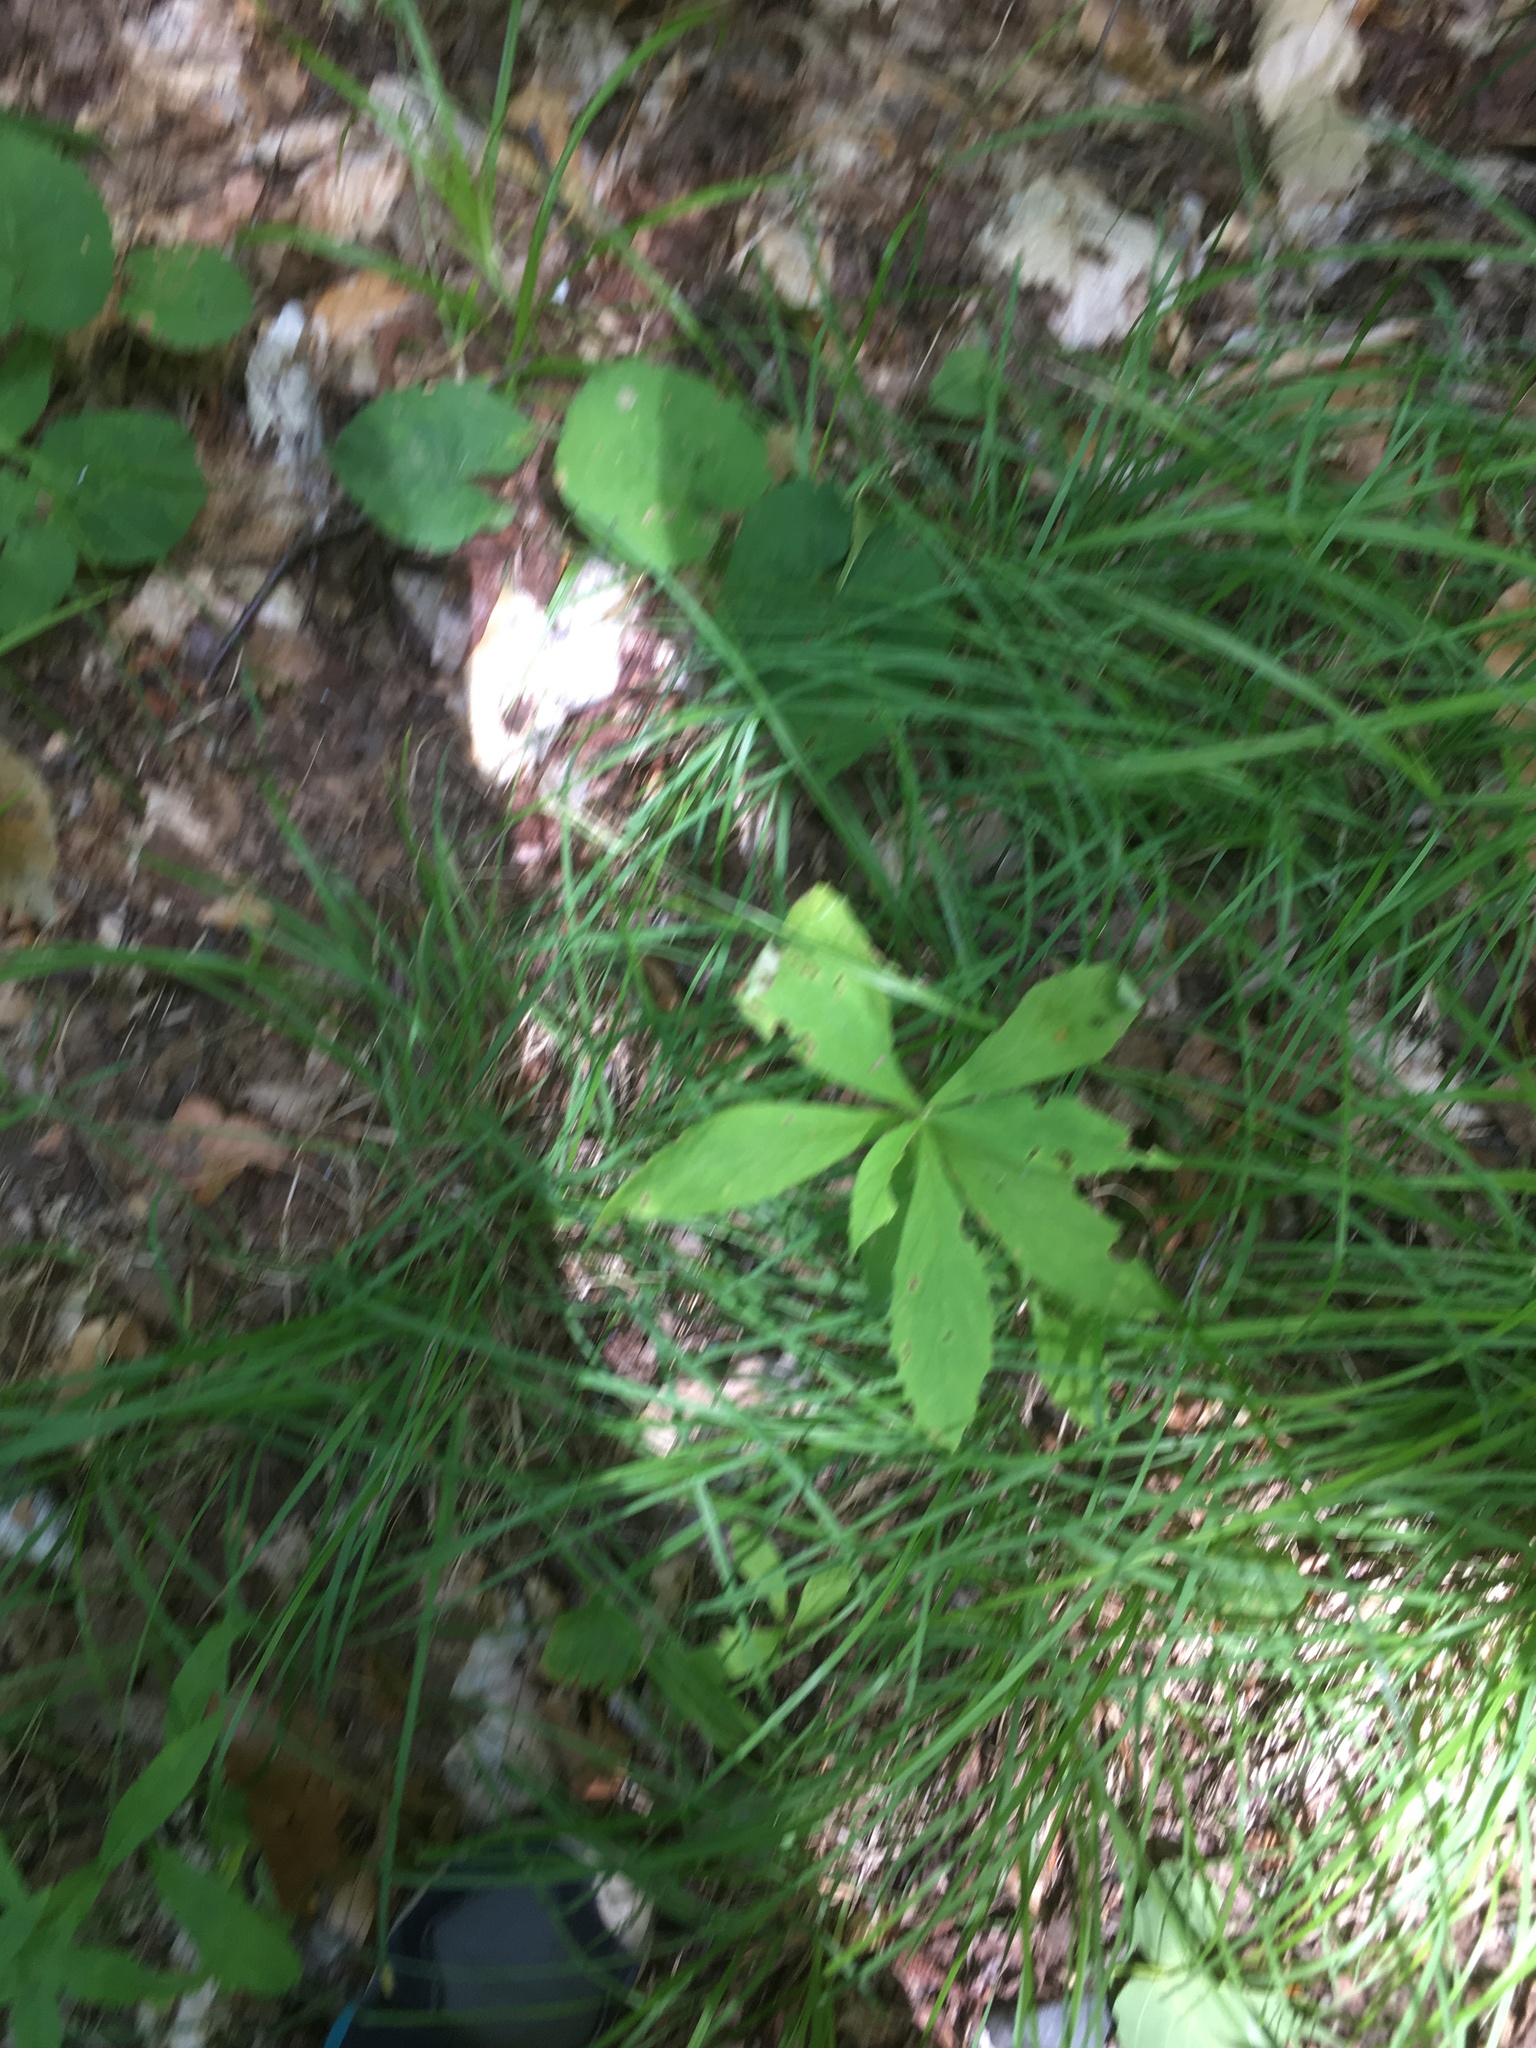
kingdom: Plantae
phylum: Tracheophyta
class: Magnoliopsida
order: Asterales
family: Asteraceae
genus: Oclemena
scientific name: Oclemena acuminata
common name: Mountain aster
